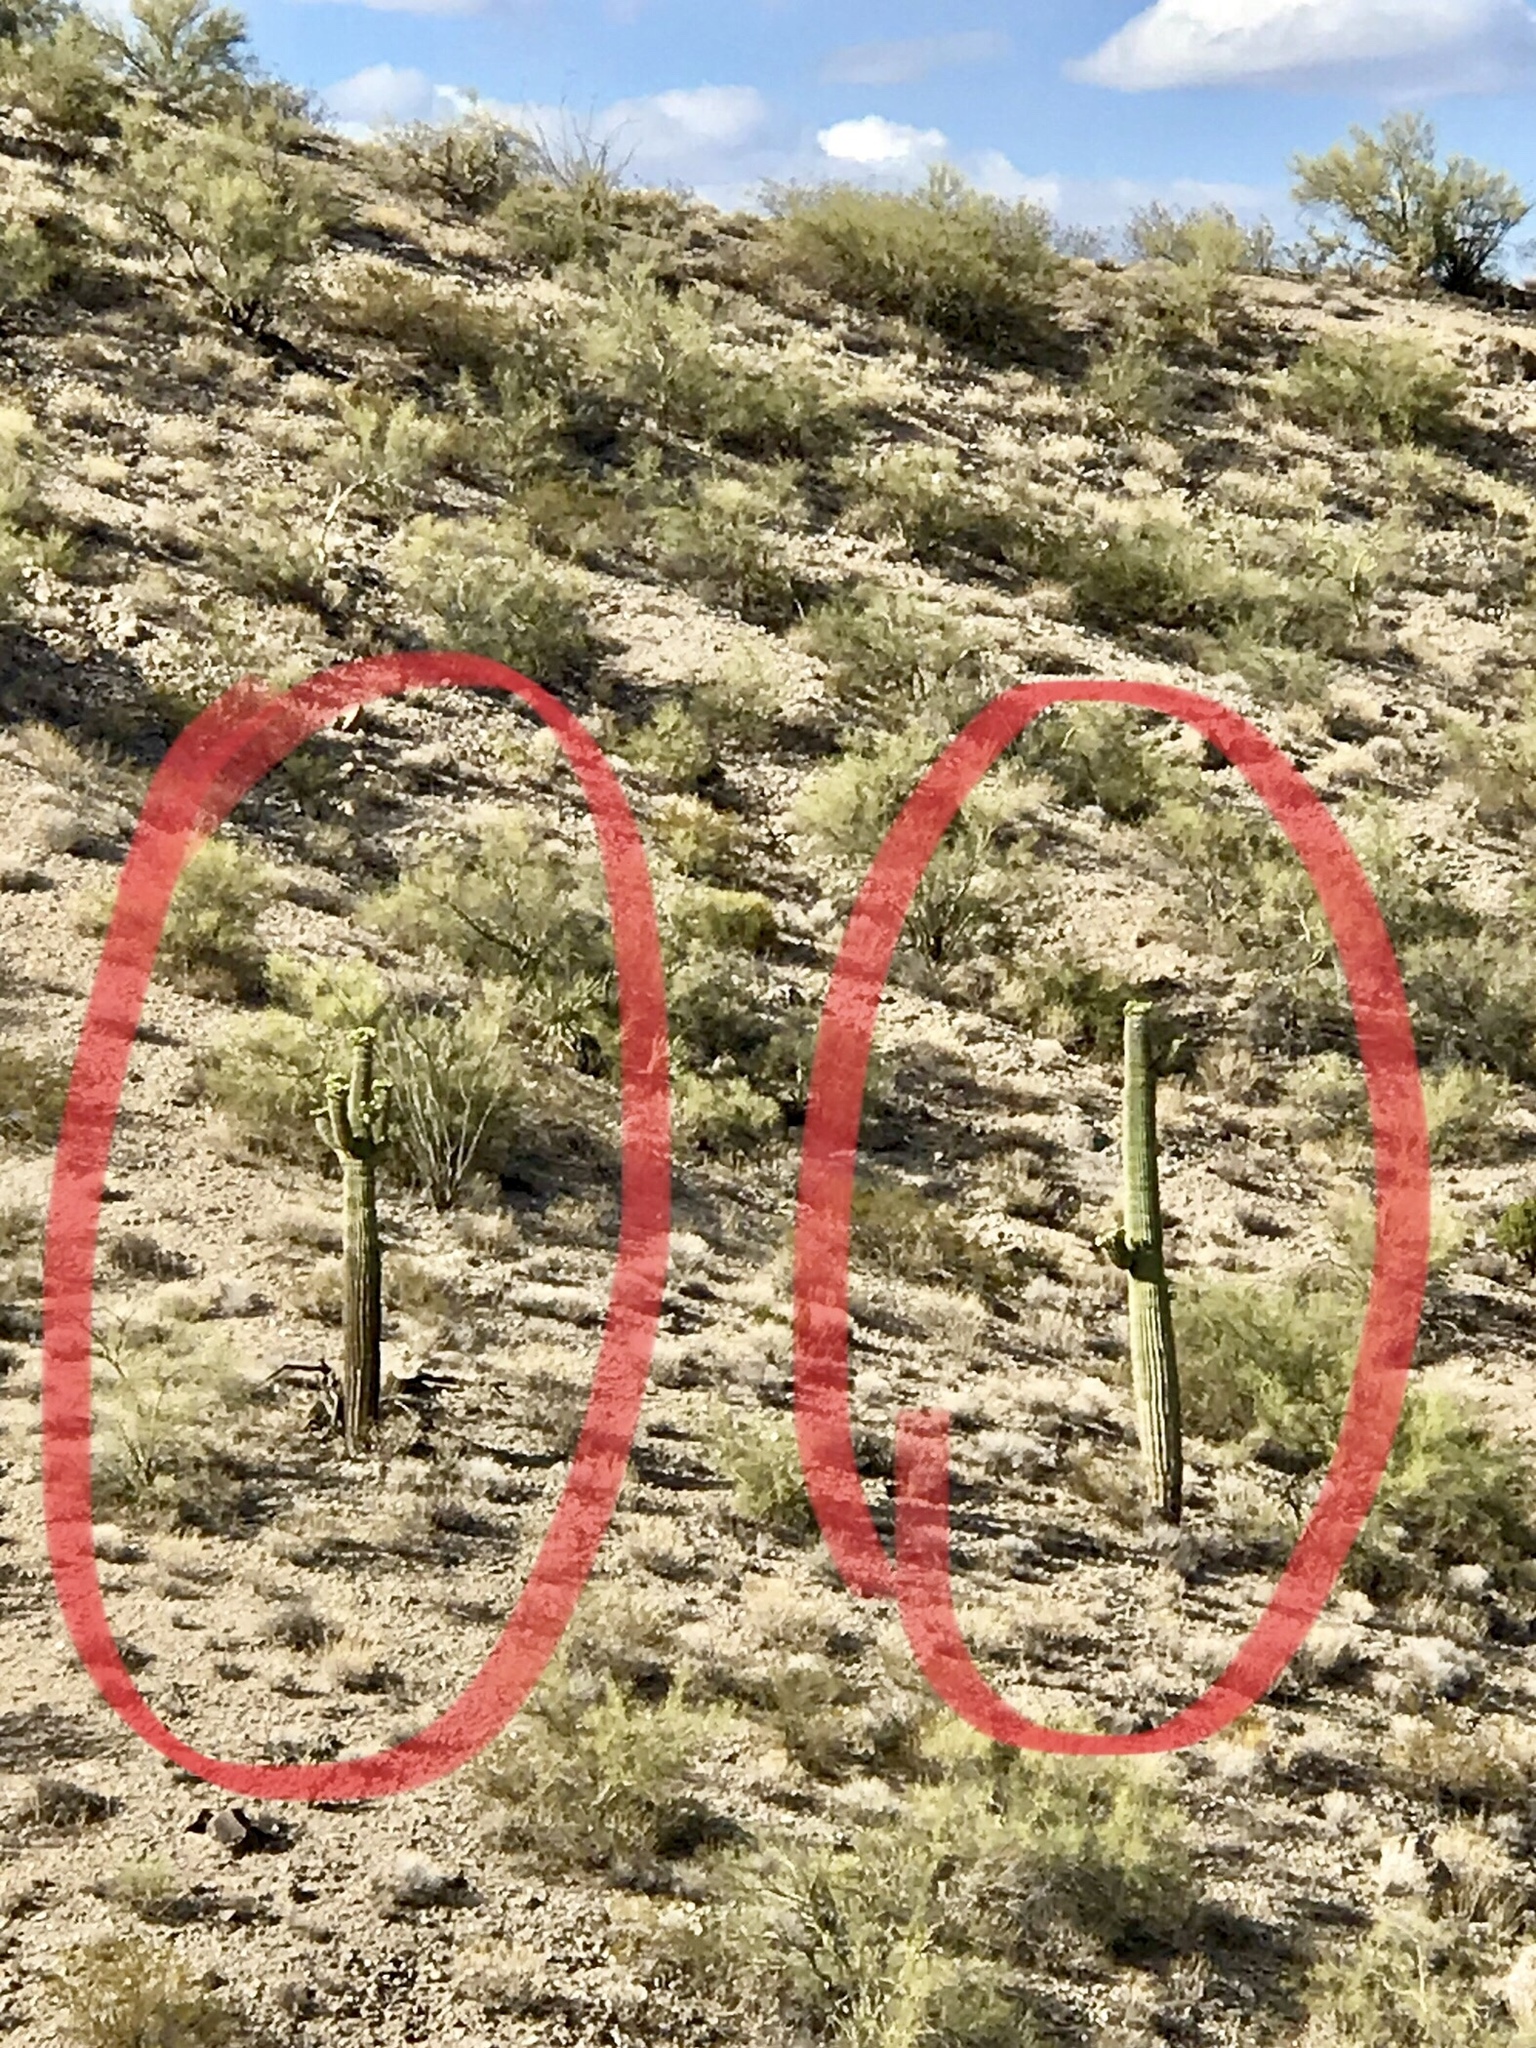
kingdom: Plantae
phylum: Tracheophyta
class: Magnoliopsida
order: Caryophyllales
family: Cactaceae
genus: Carnegiea
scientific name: Carnegiea gigantea
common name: Saguaro
